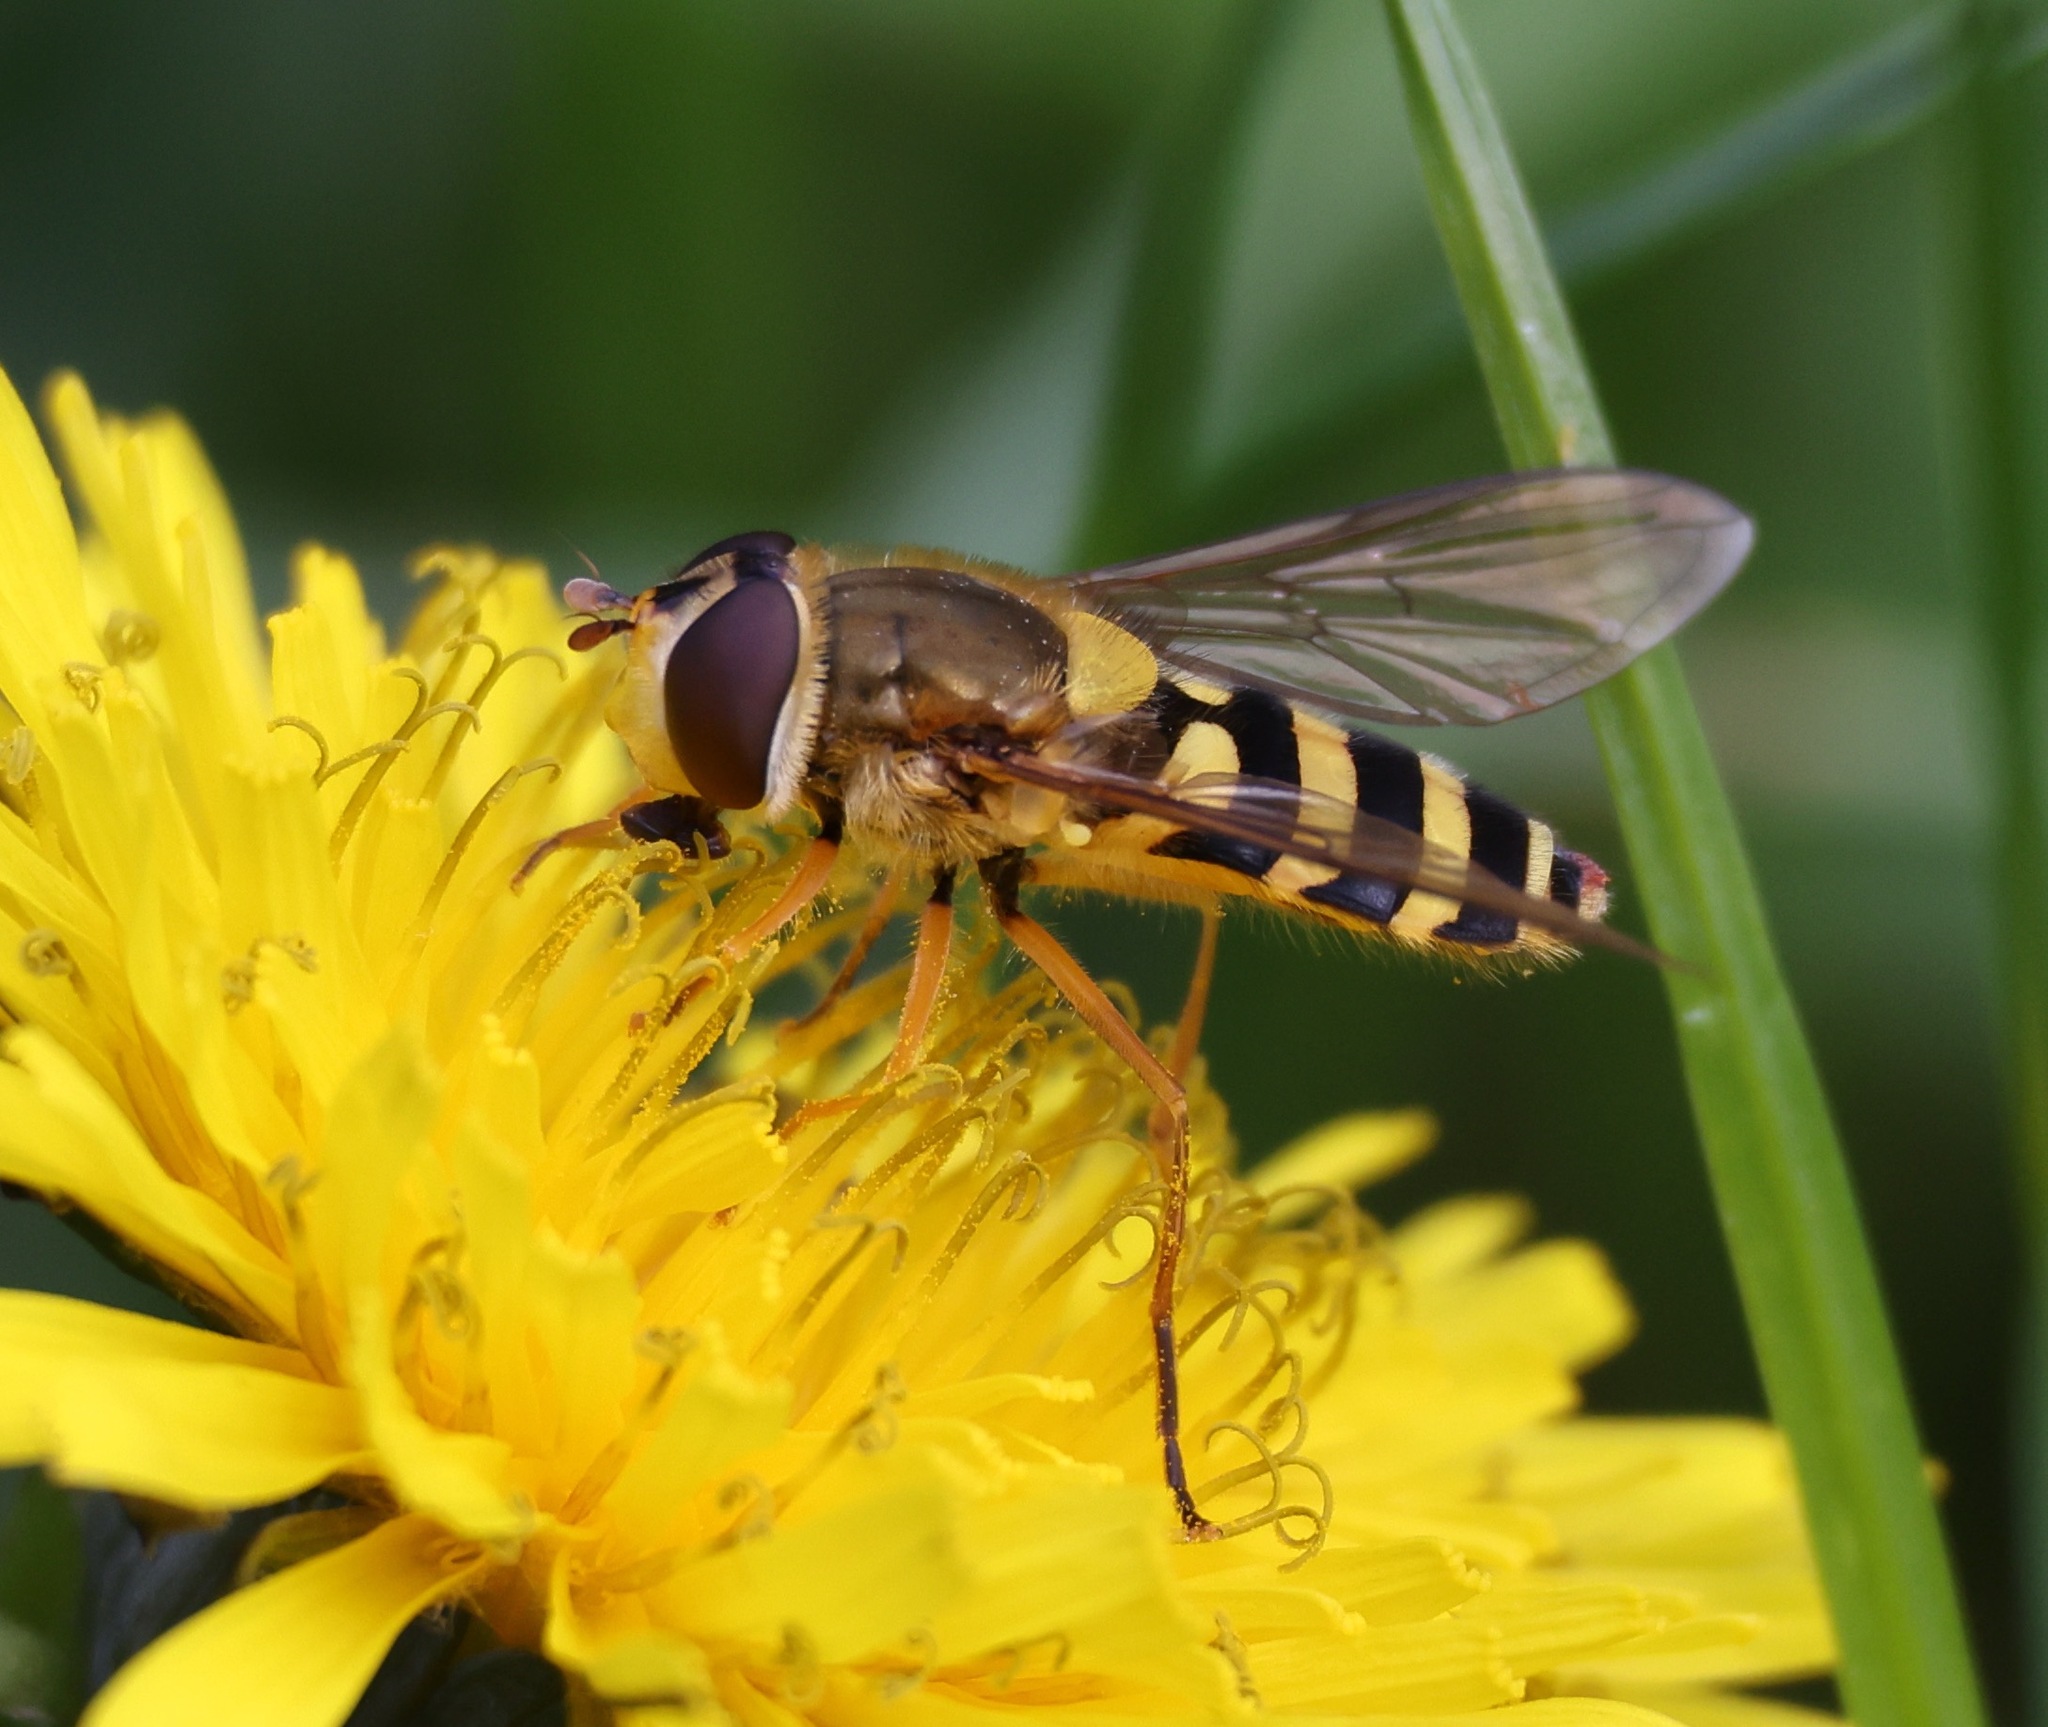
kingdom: Animalia
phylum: Arthropoda
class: Insecta
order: Diptera
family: Syrphidae
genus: Syrphus
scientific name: Syrphus ribesii
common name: Common flower fly
